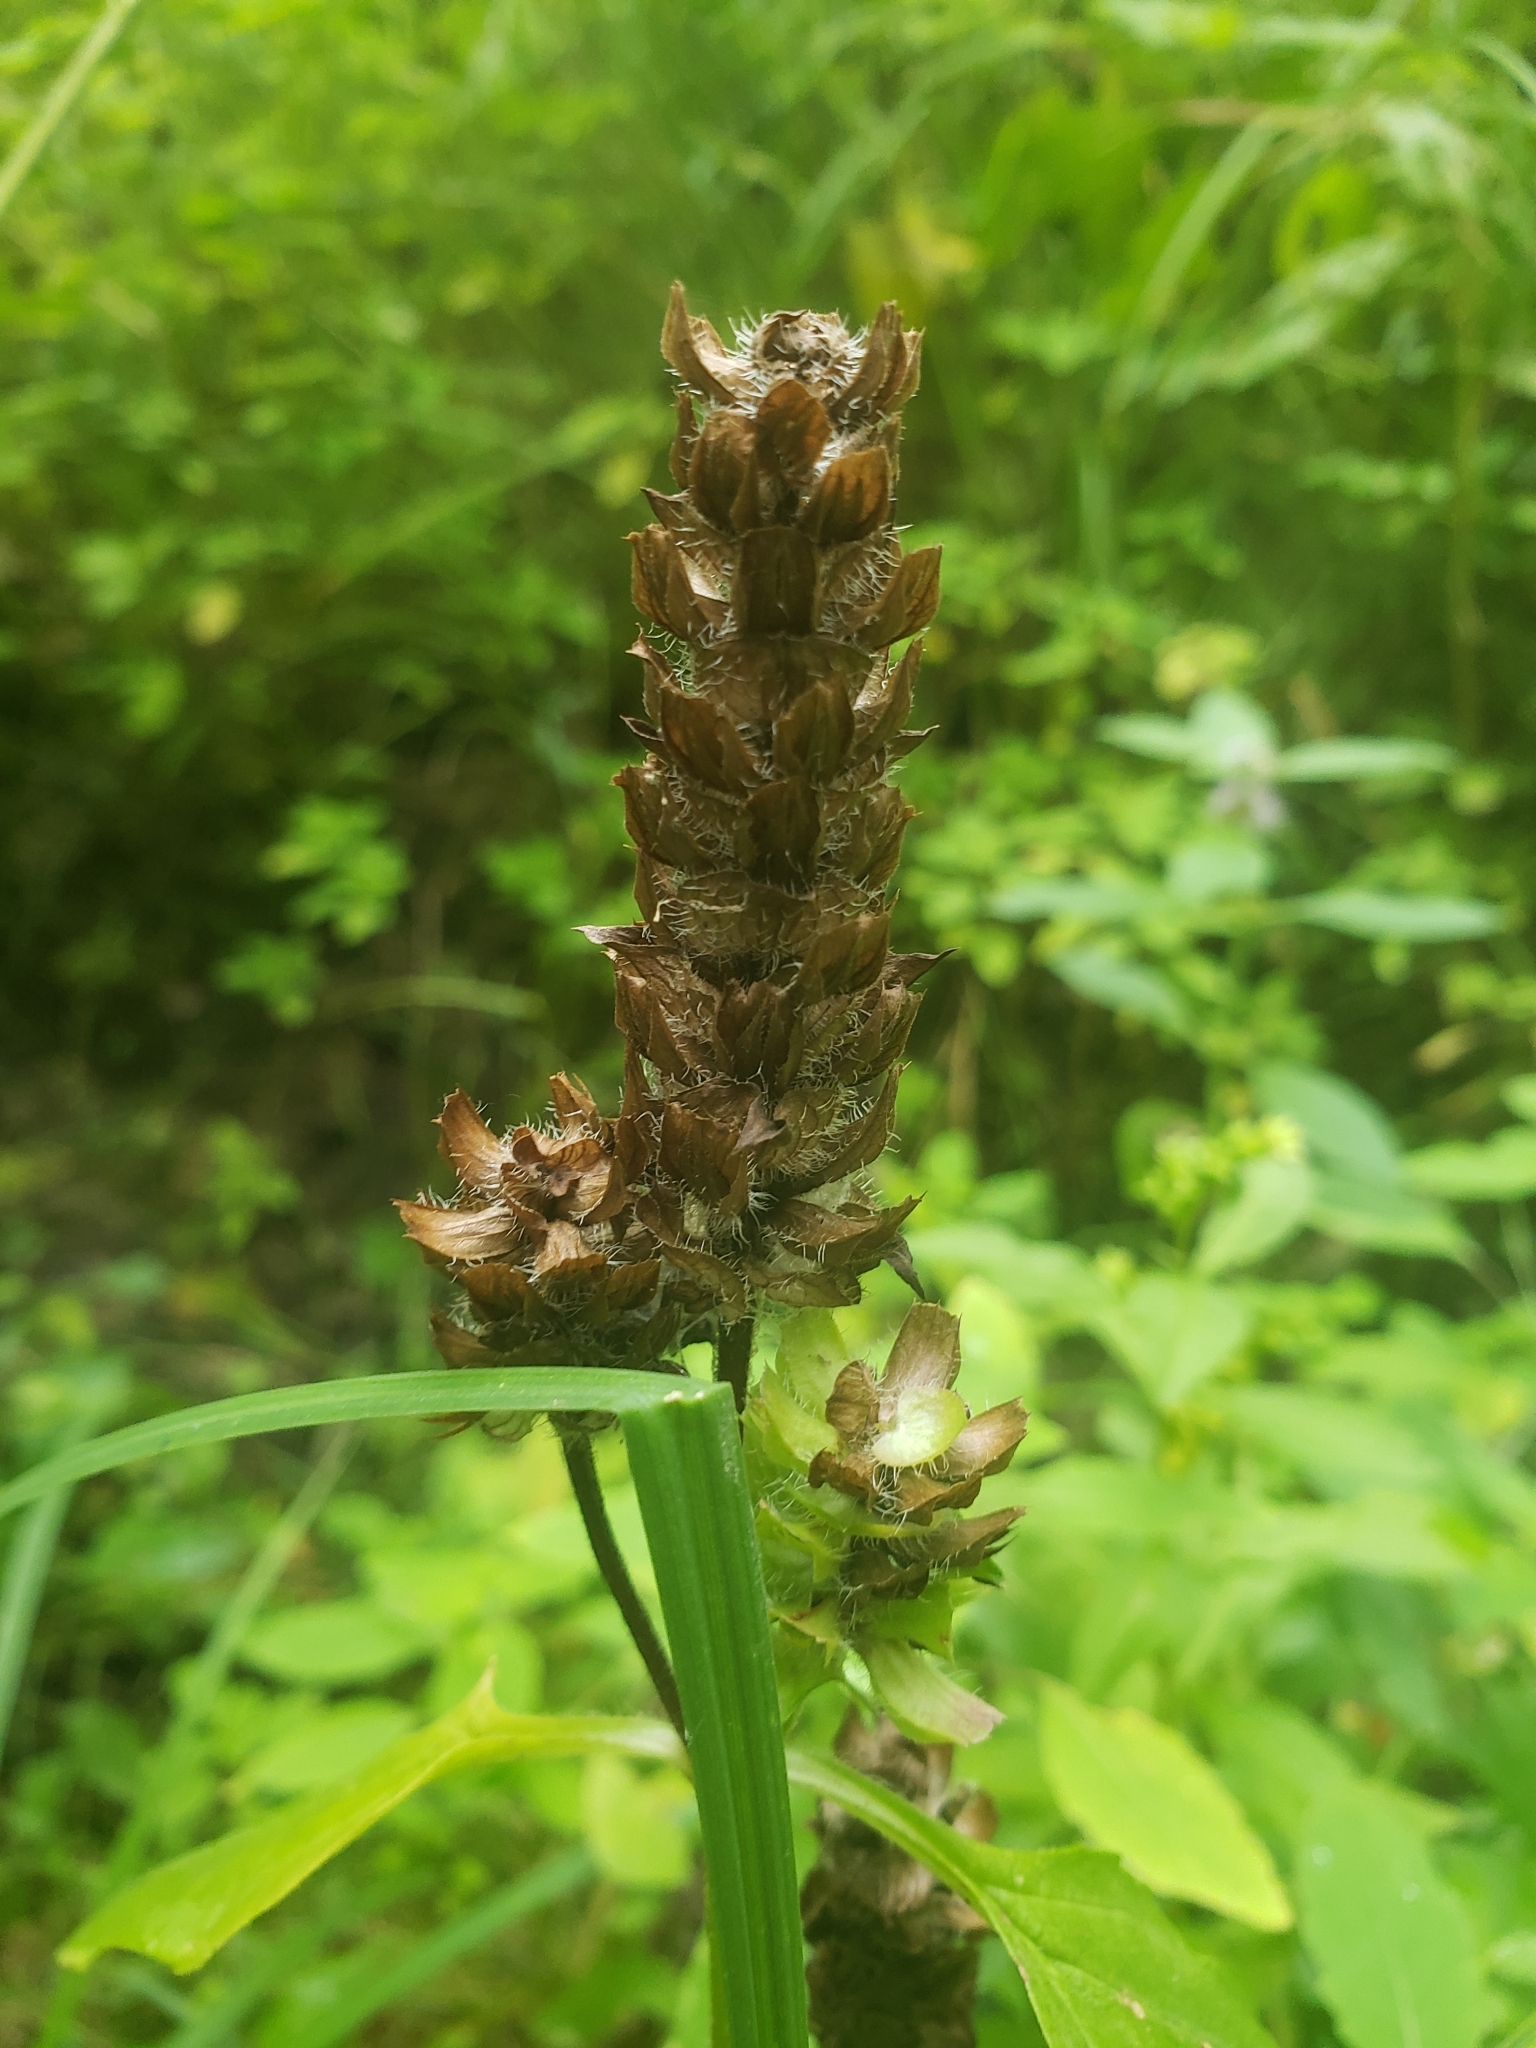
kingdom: Plantae
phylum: Tracheophyta
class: Magnoliopsida
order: Lamiales
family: Lamiaceae
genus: Prunella
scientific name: Prunella vulgaris
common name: Heal-all
